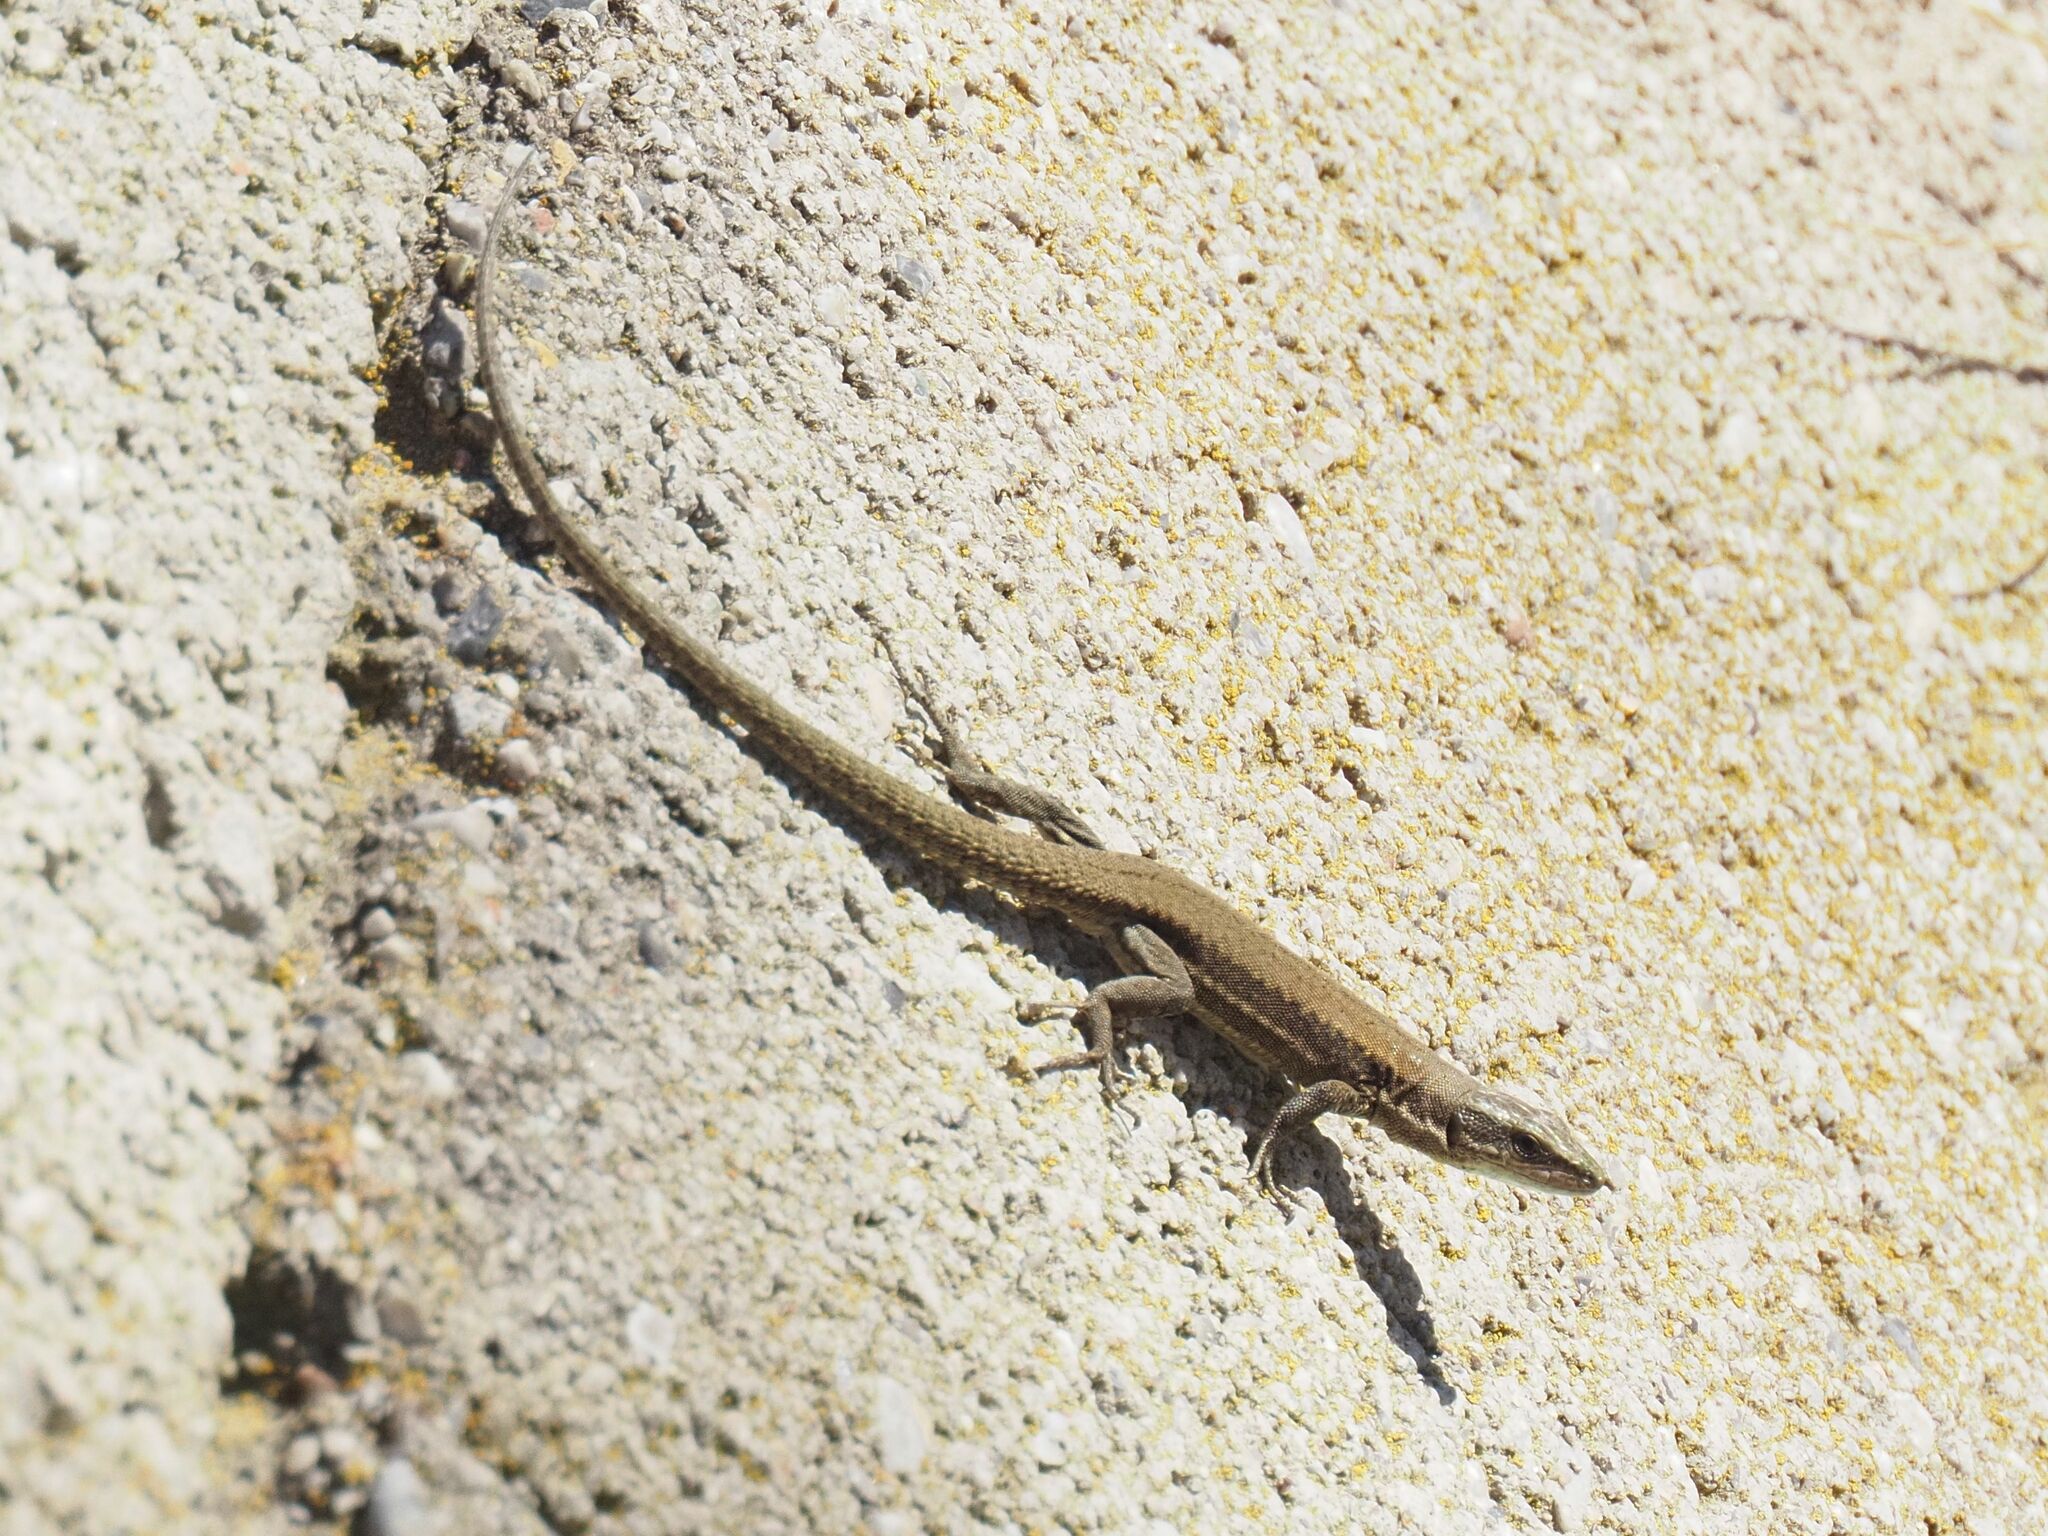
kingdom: Animalia
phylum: Chordata
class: Squamata
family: Lacertidae
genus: Podarcis
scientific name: Podarcis muralis
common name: Common wall lizard
